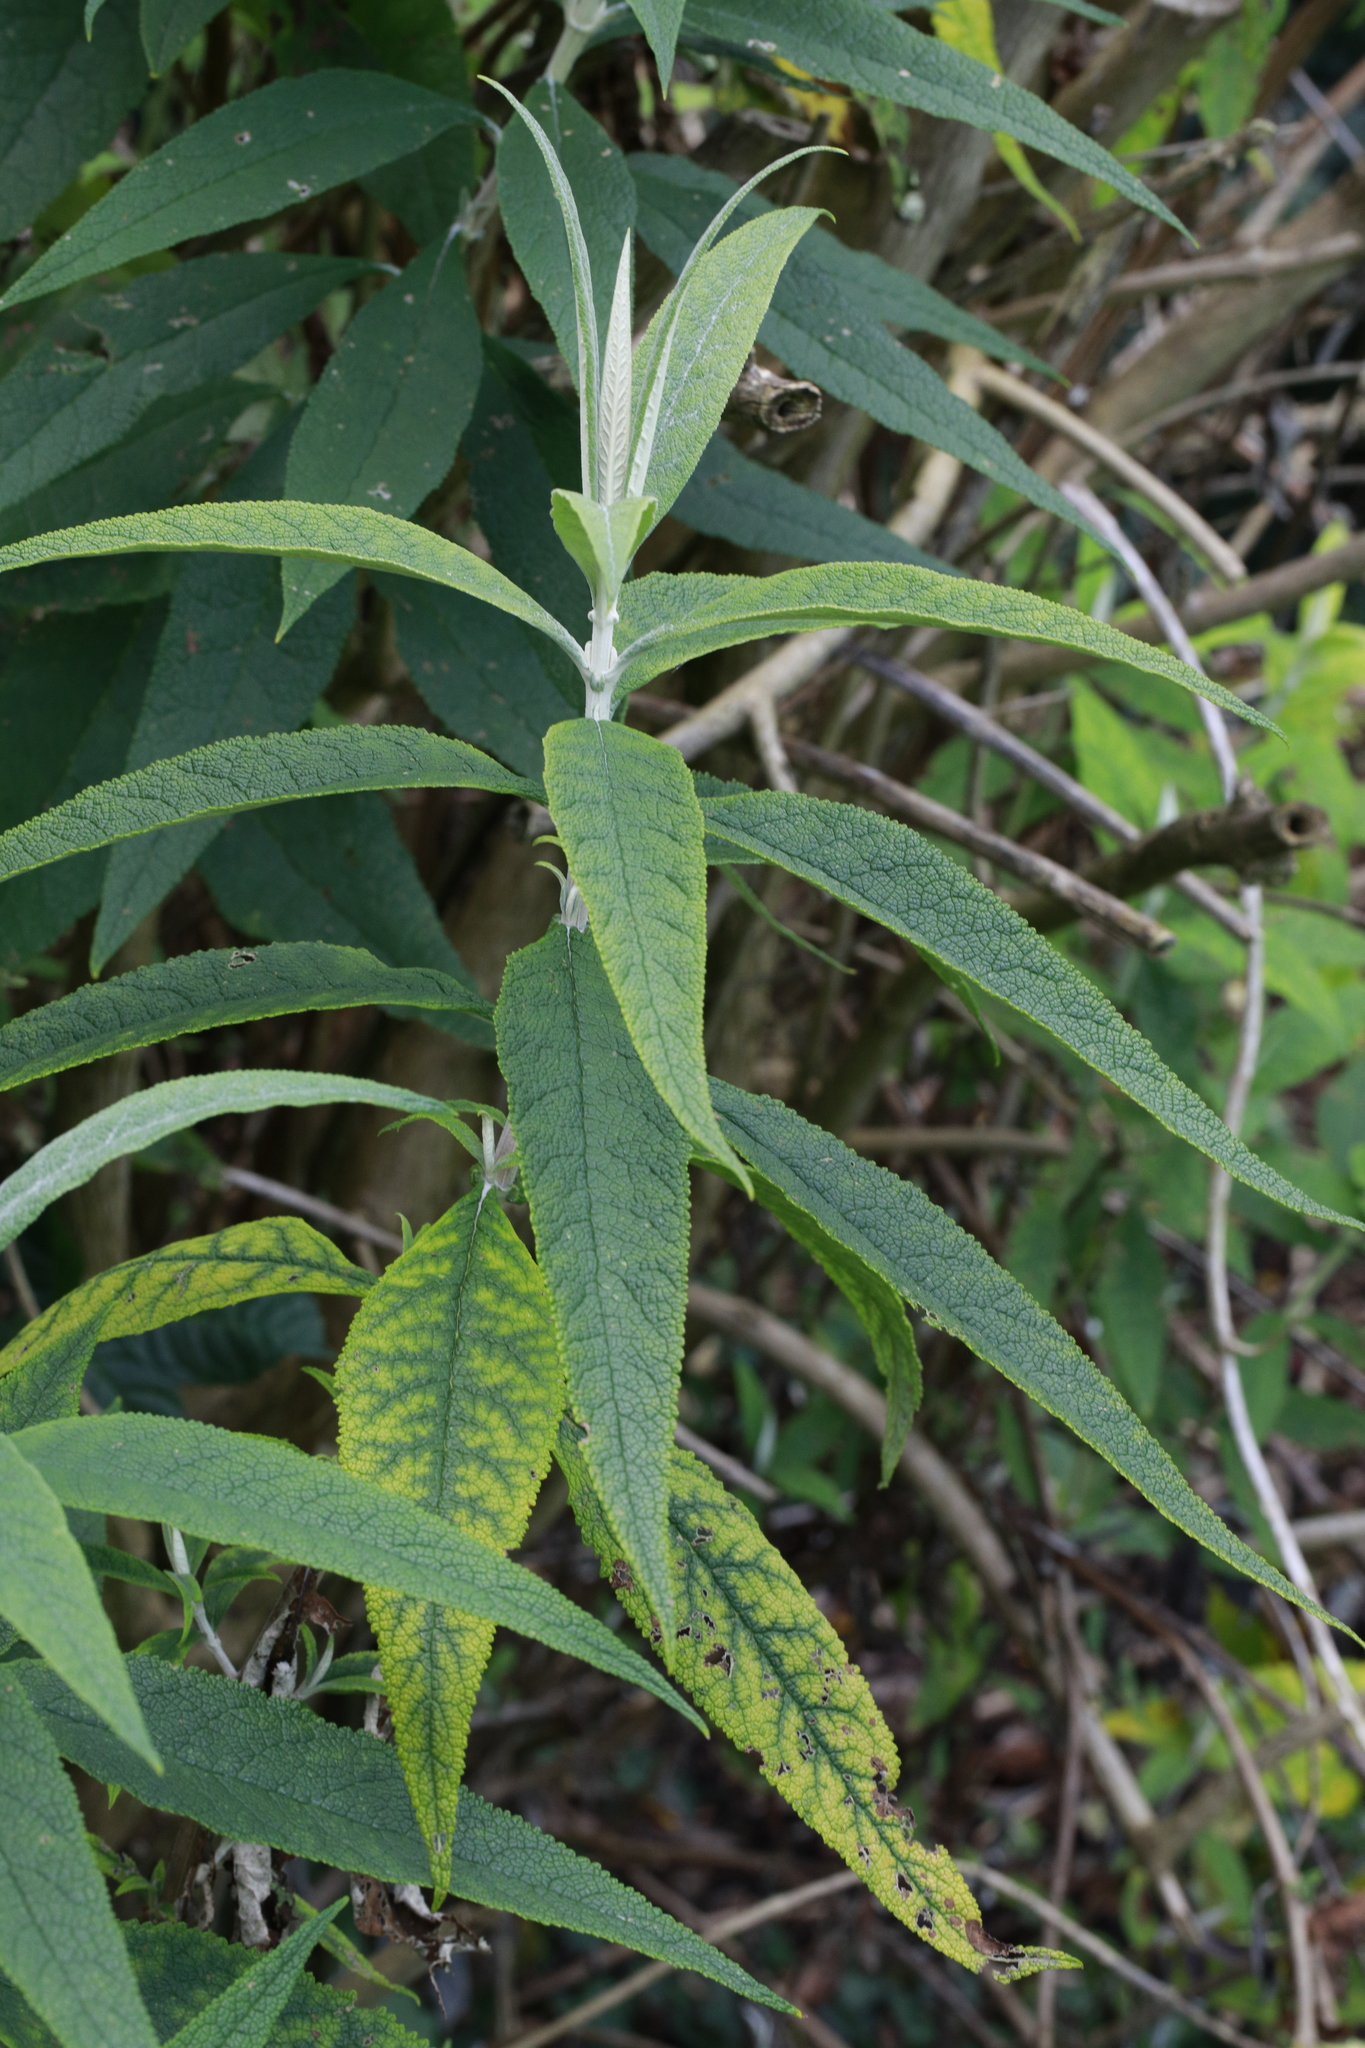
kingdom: Plantae
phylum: Tracheophyta
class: Magnoliopsida
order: Lamiales
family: Scrophulariaceae
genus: Buddleja
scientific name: Buddleja davidii
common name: Butterfly-bush
